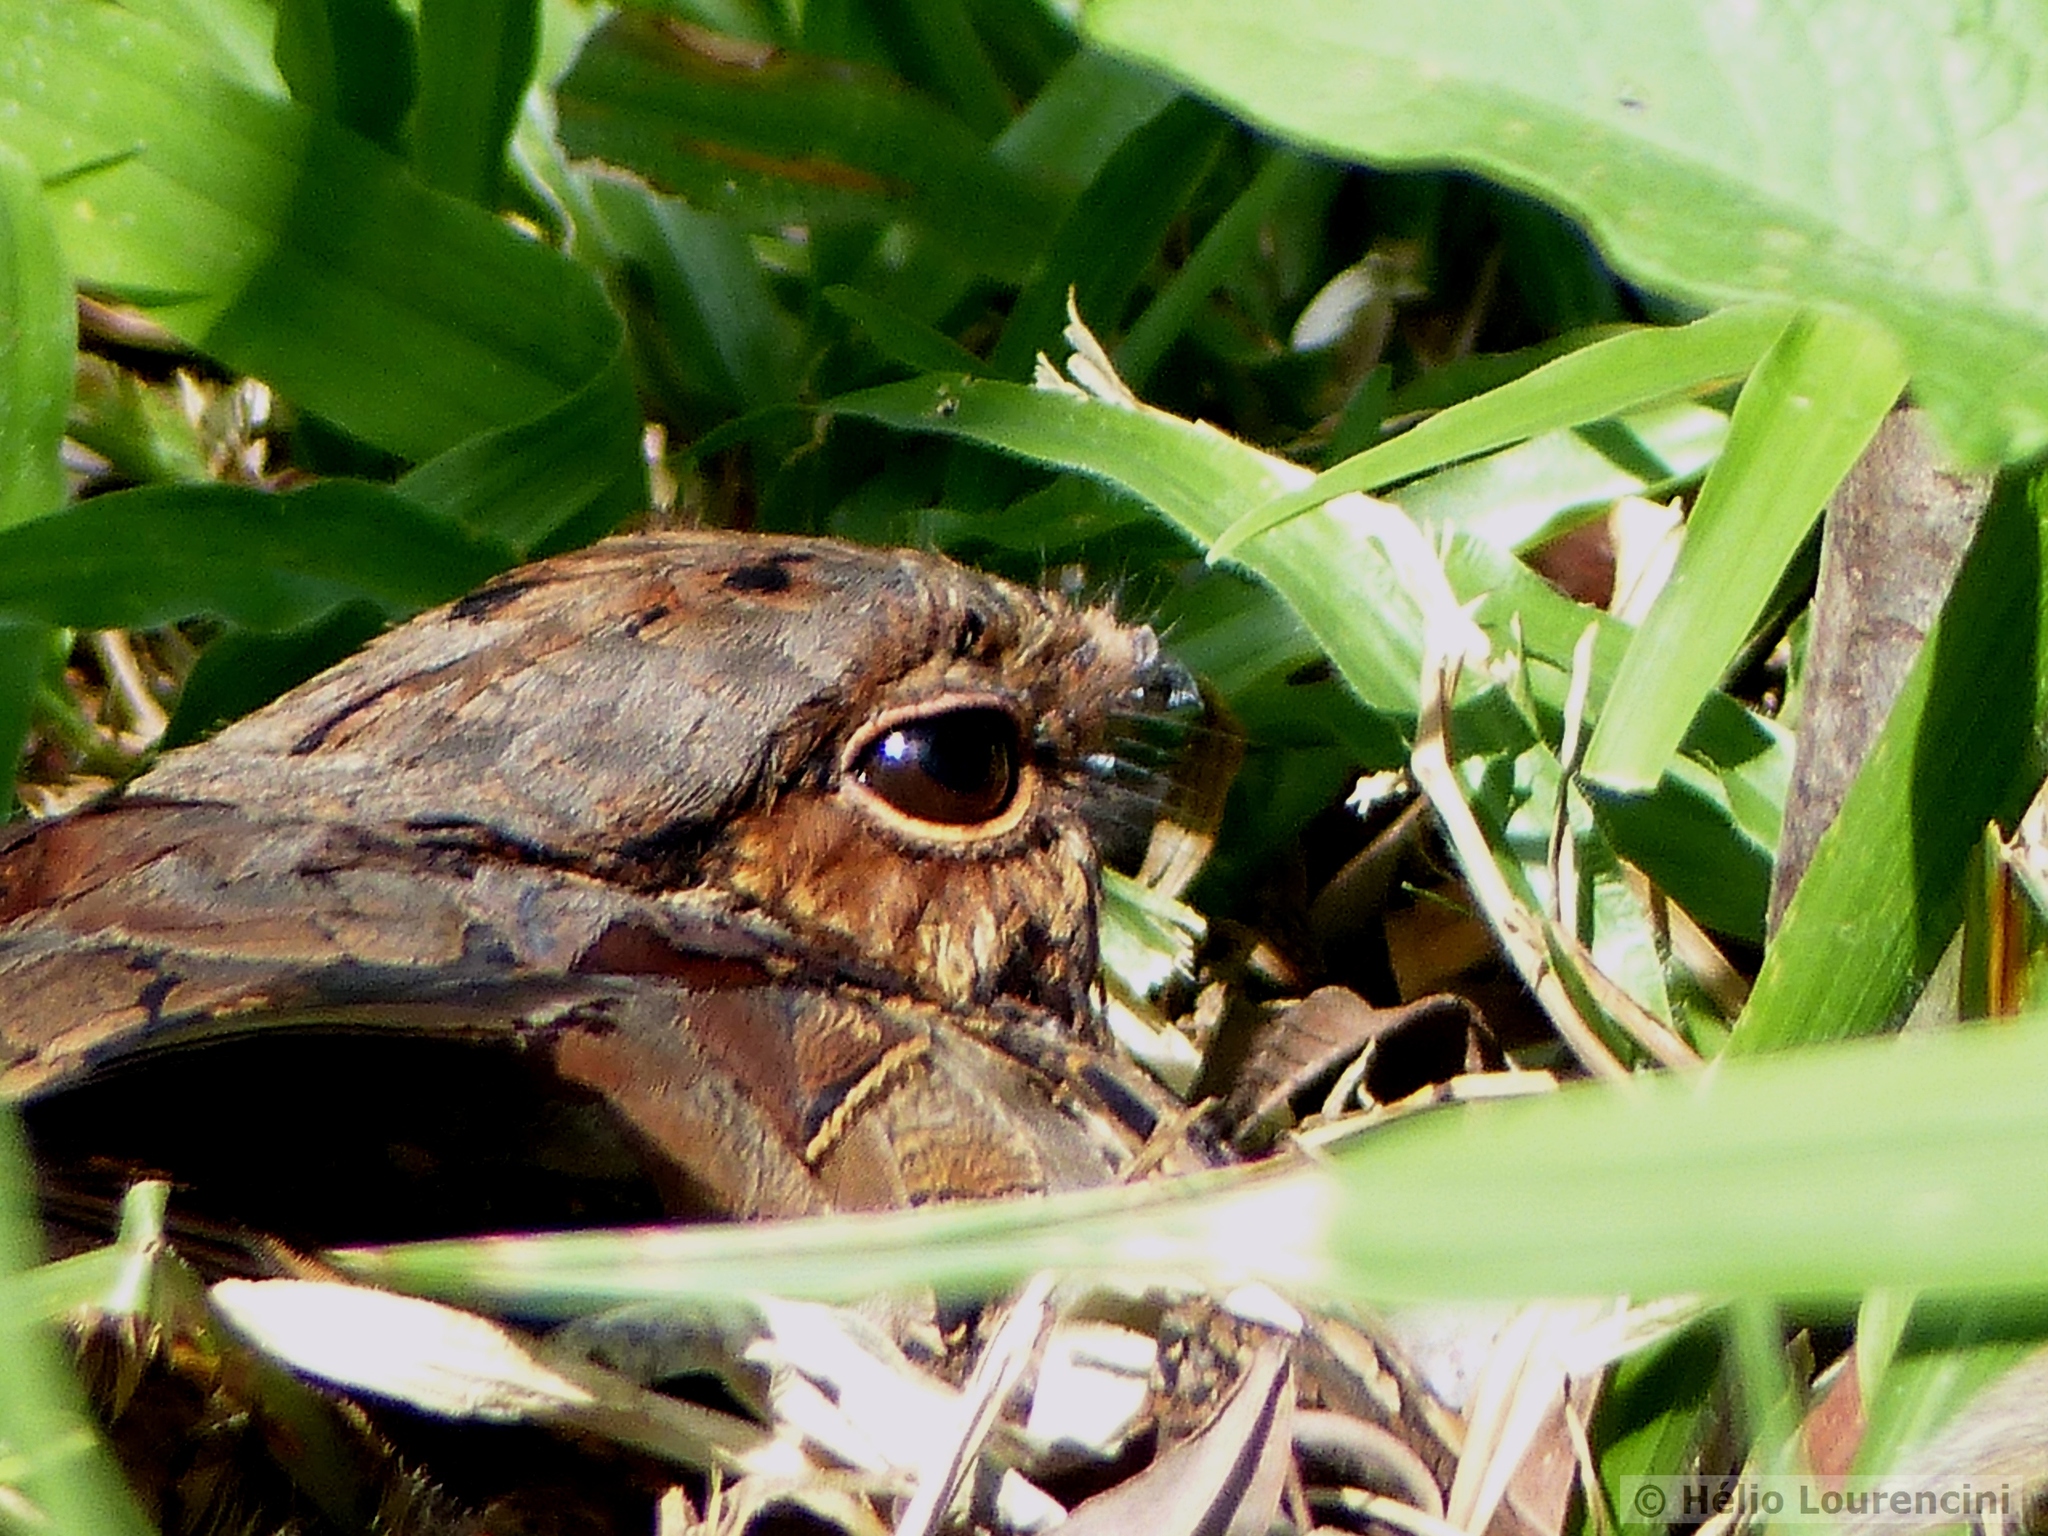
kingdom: Animalia
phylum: Chordata
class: Aves
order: Caprimulgiformes
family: Caprimulgidae
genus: Nyctidromus
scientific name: Nyctidromus albicollis
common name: Pauraque
